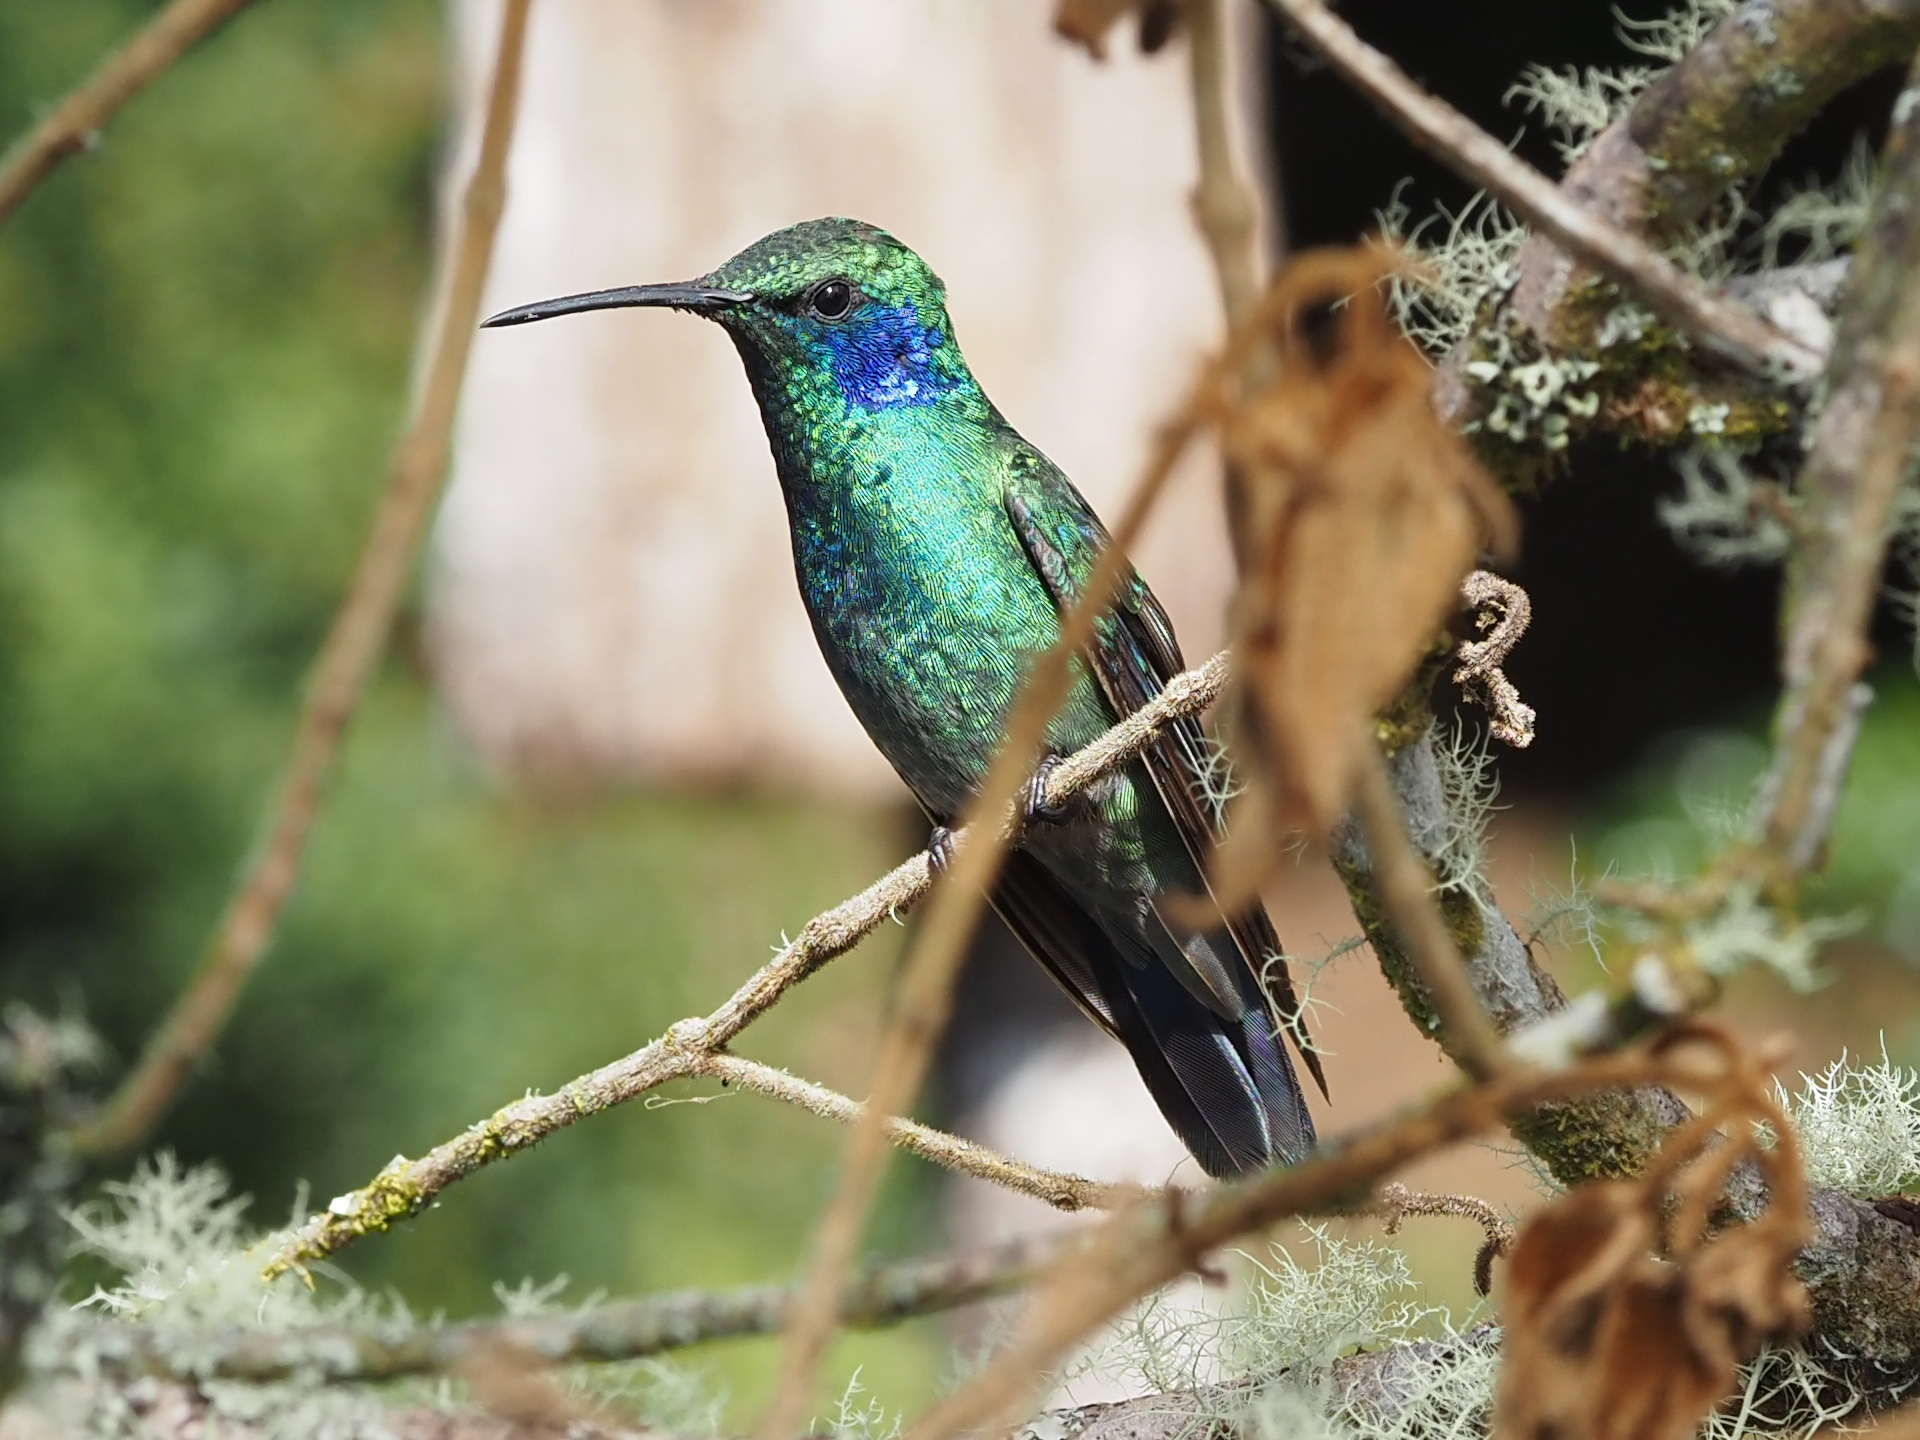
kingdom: Animalia
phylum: Chordata
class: Aves
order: Apodiformes
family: Trochilidae
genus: Colibri
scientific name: Colibri cyanotus
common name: Lesser violetear
